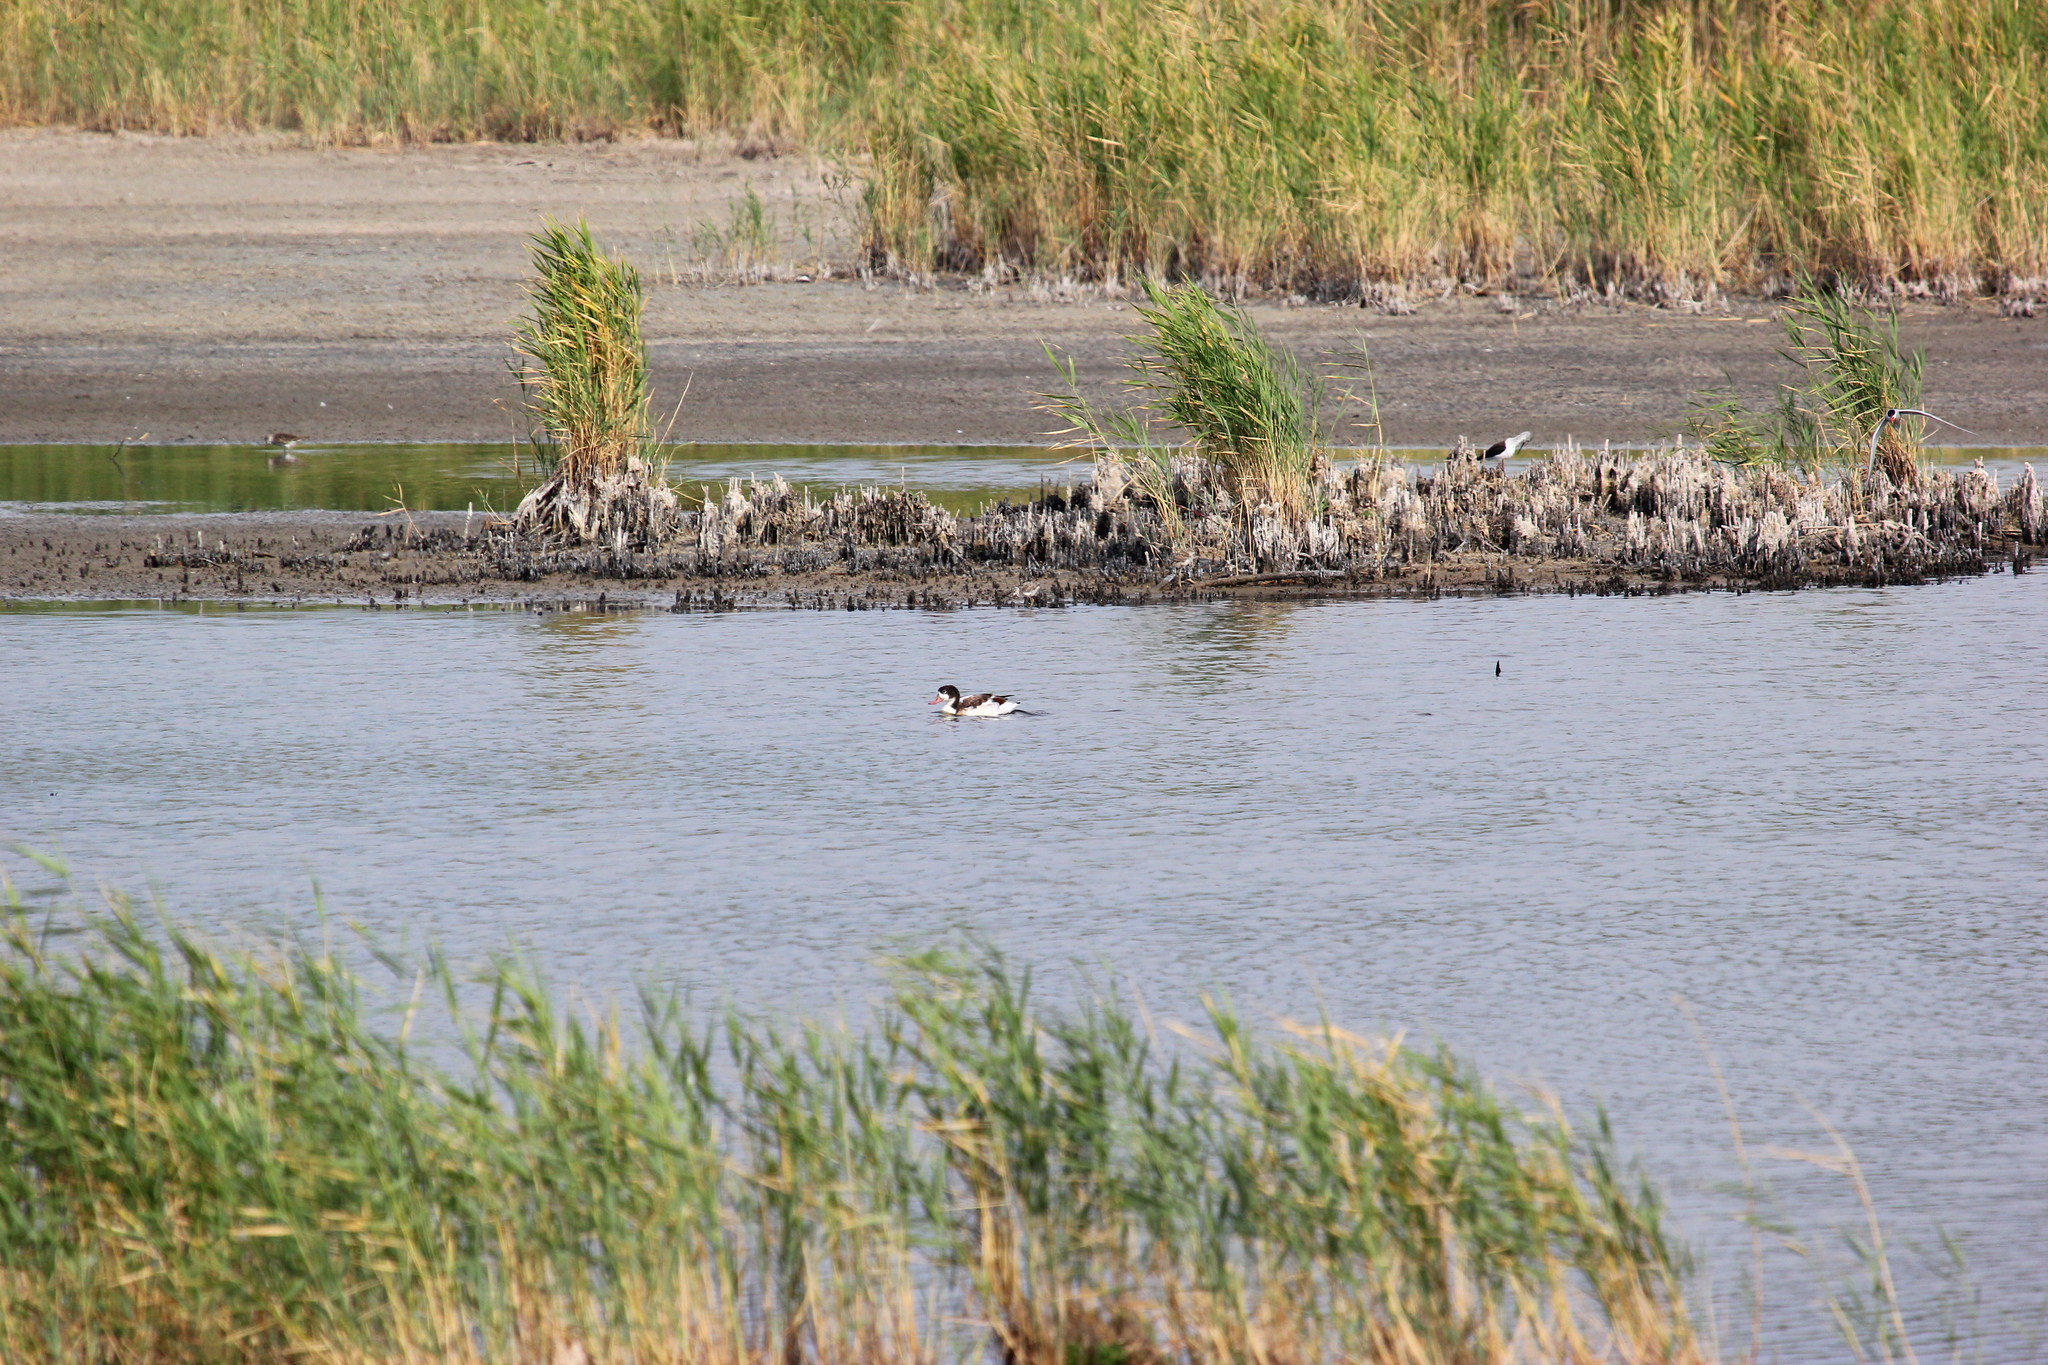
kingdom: Animalia
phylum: Chordata
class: Aves
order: Anseriformes
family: Anatidae
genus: Tadorna
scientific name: Tadorna tadorna
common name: Common shelduck
